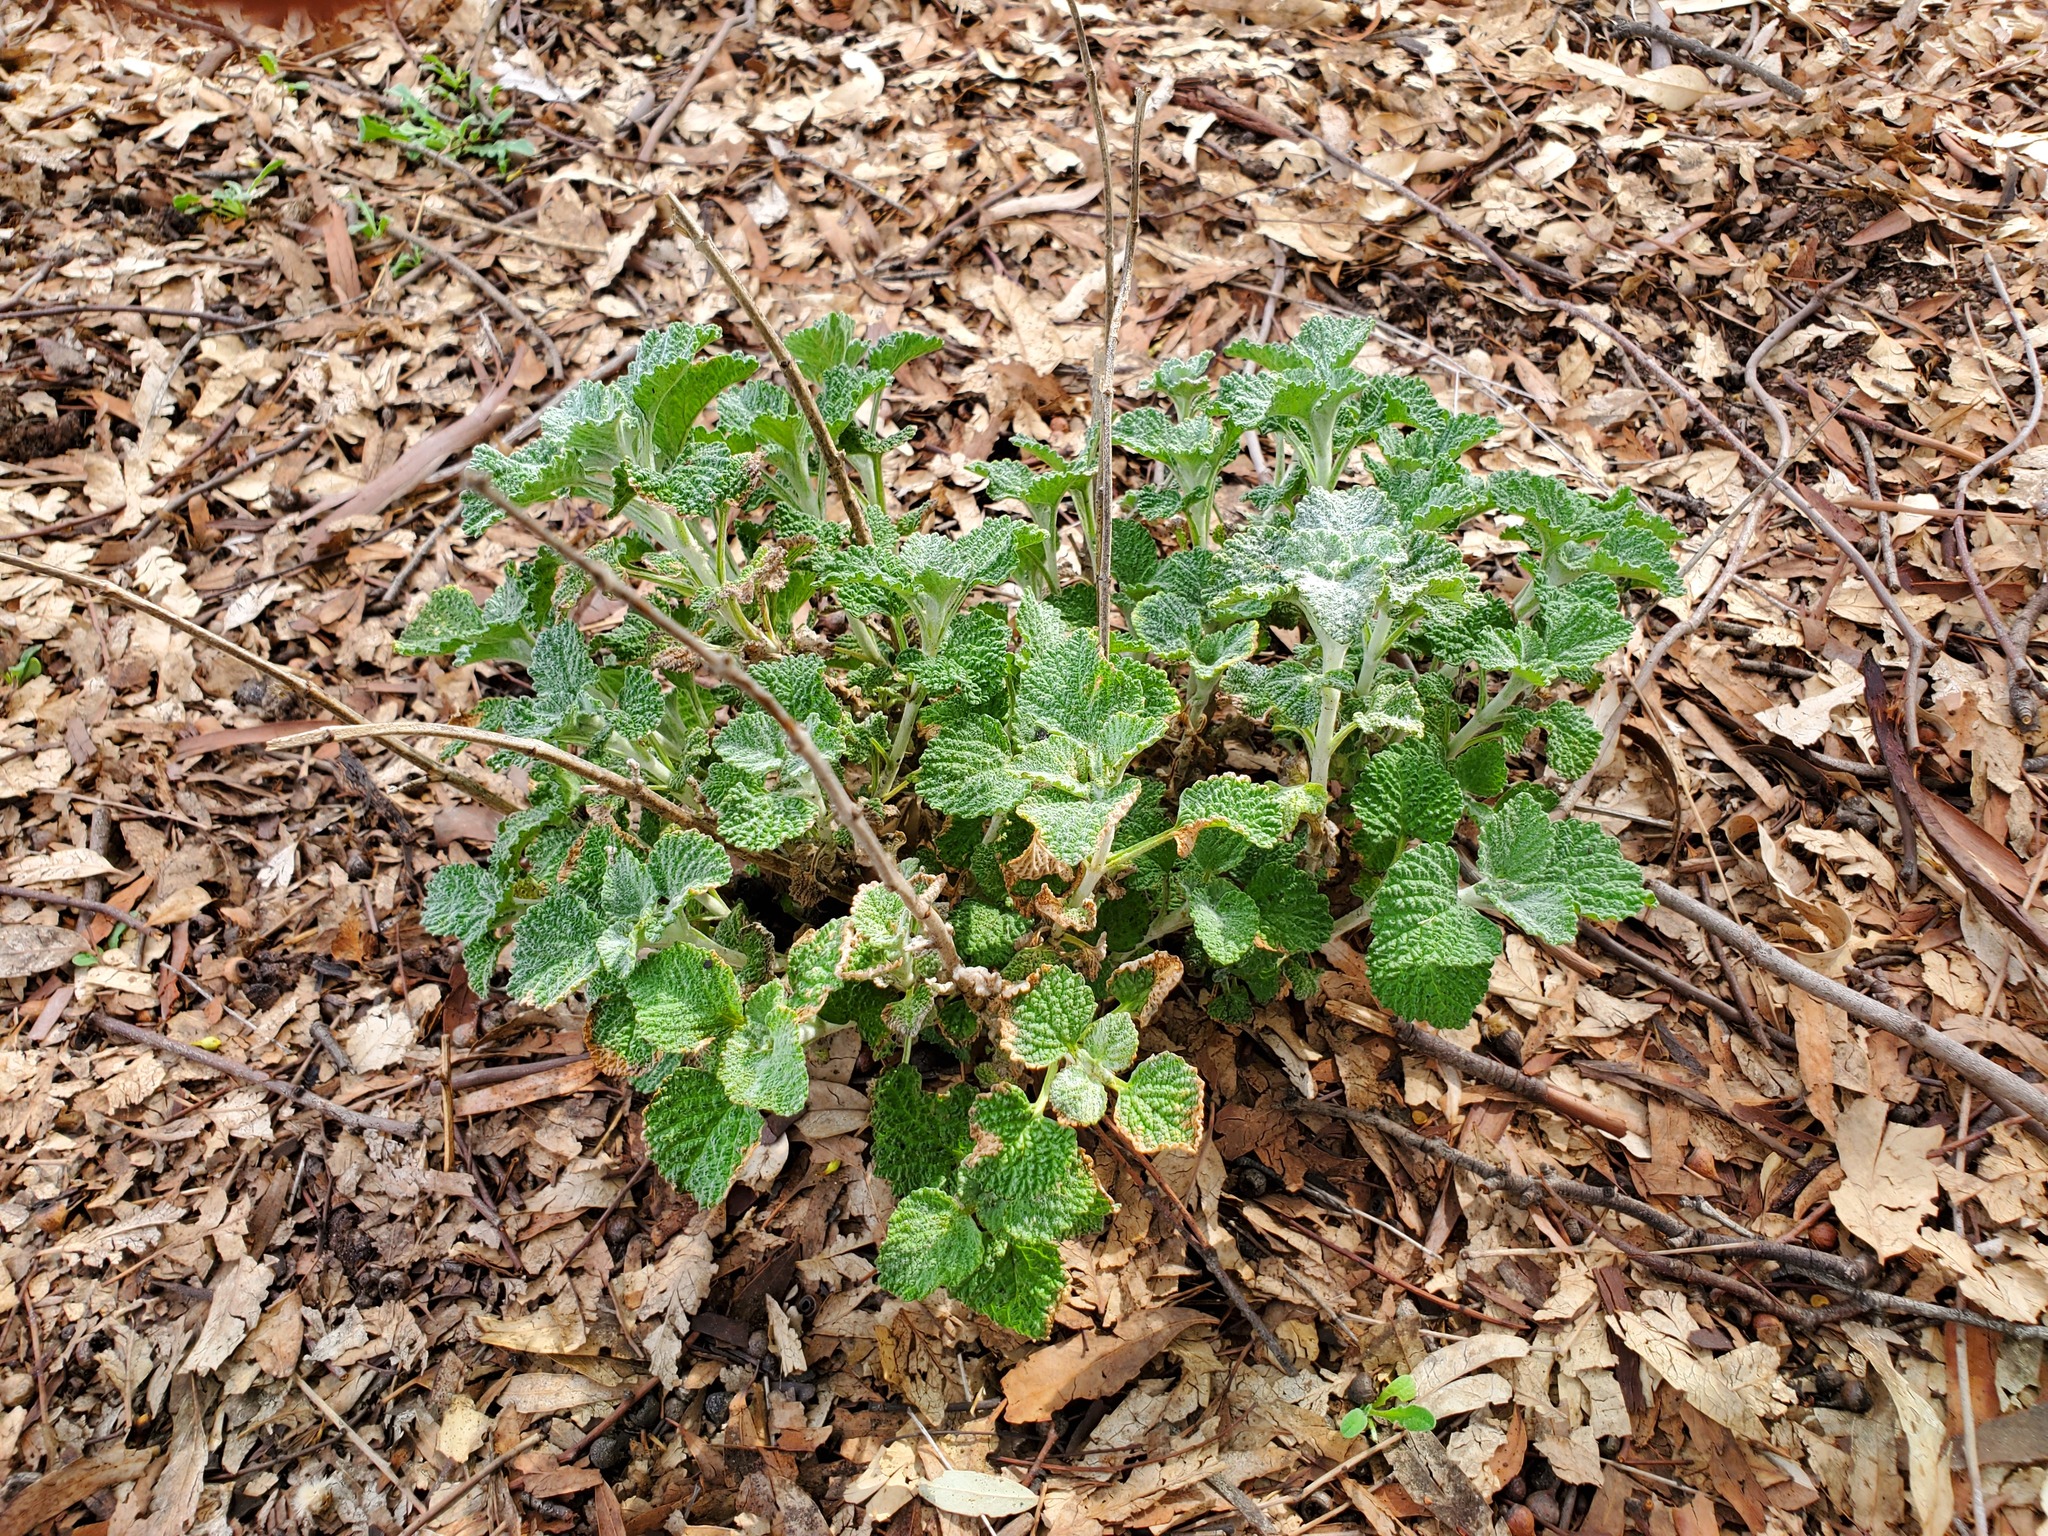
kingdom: Plantae
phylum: Tracheophyta
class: Magnoliopsida
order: Lamiales
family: Lamiaceae
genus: Marrubium
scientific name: Marrubium vulgare
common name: Horehound
